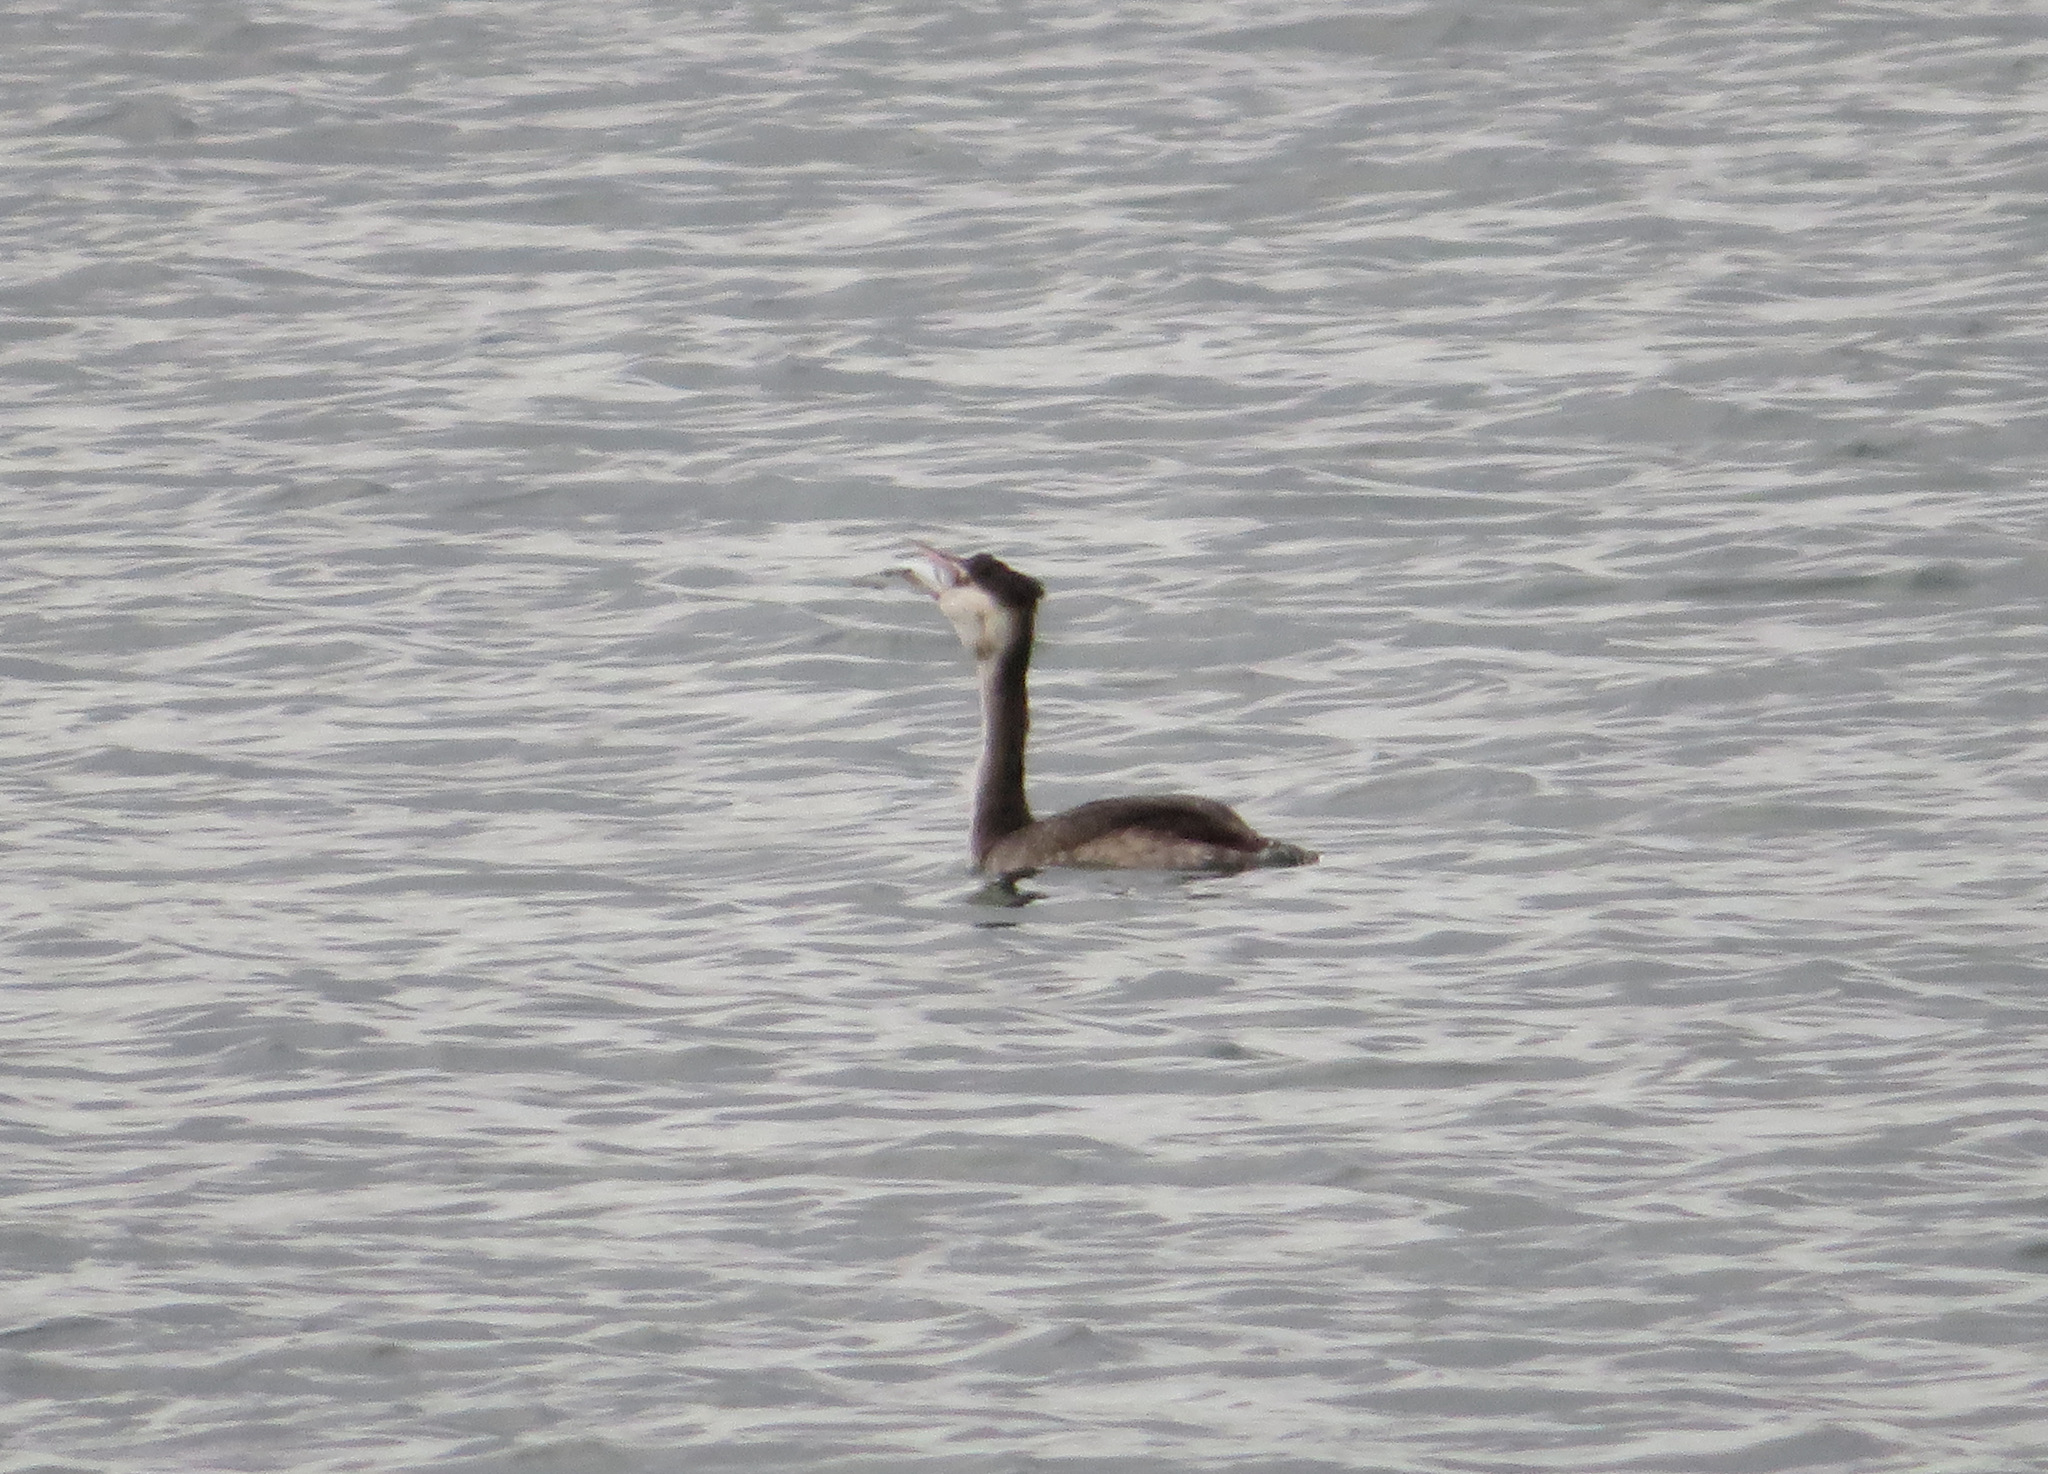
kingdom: Animalia
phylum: Chordata
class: Aves
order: Podicipediformes
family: Podicipedidae
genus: Podiceps
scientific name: Podiceps cristatus
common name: Great crested grebe
